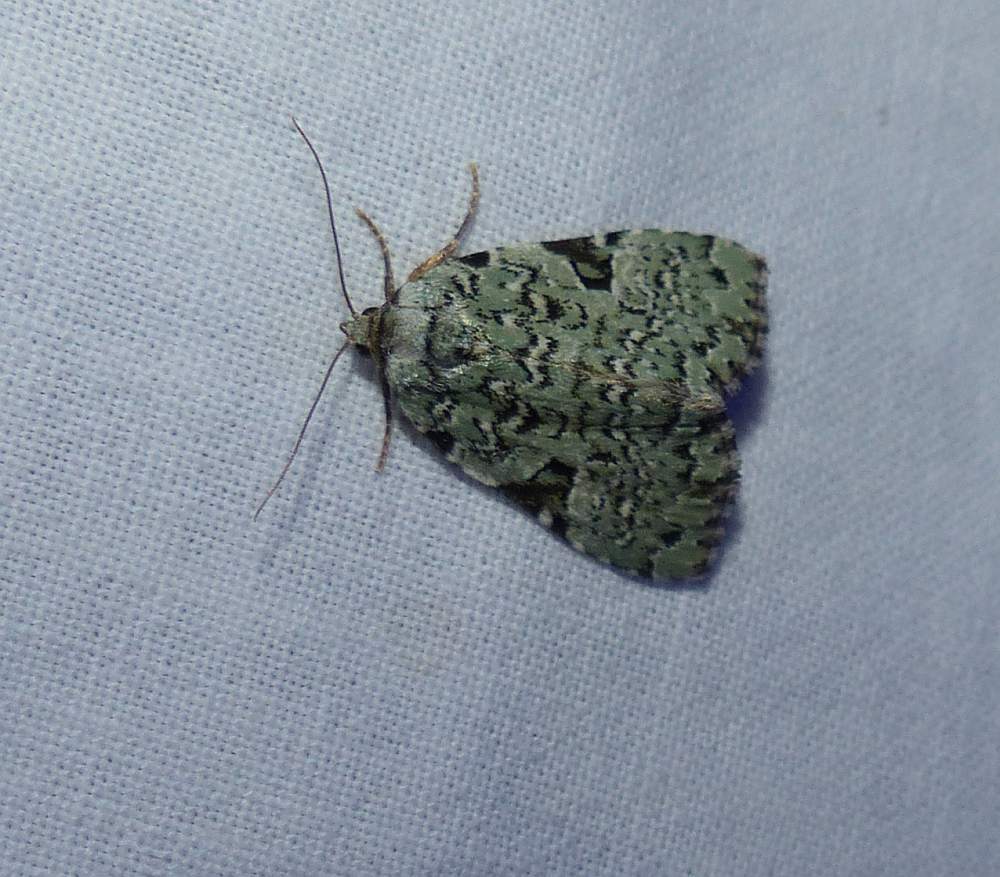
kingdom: Animalia
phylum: Arthropoda
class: Insecta
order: Lepidoptera
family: Noctuidae
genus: Leuconycta
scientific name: Leuconycta diphteroides
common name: Green leuconycta moth
